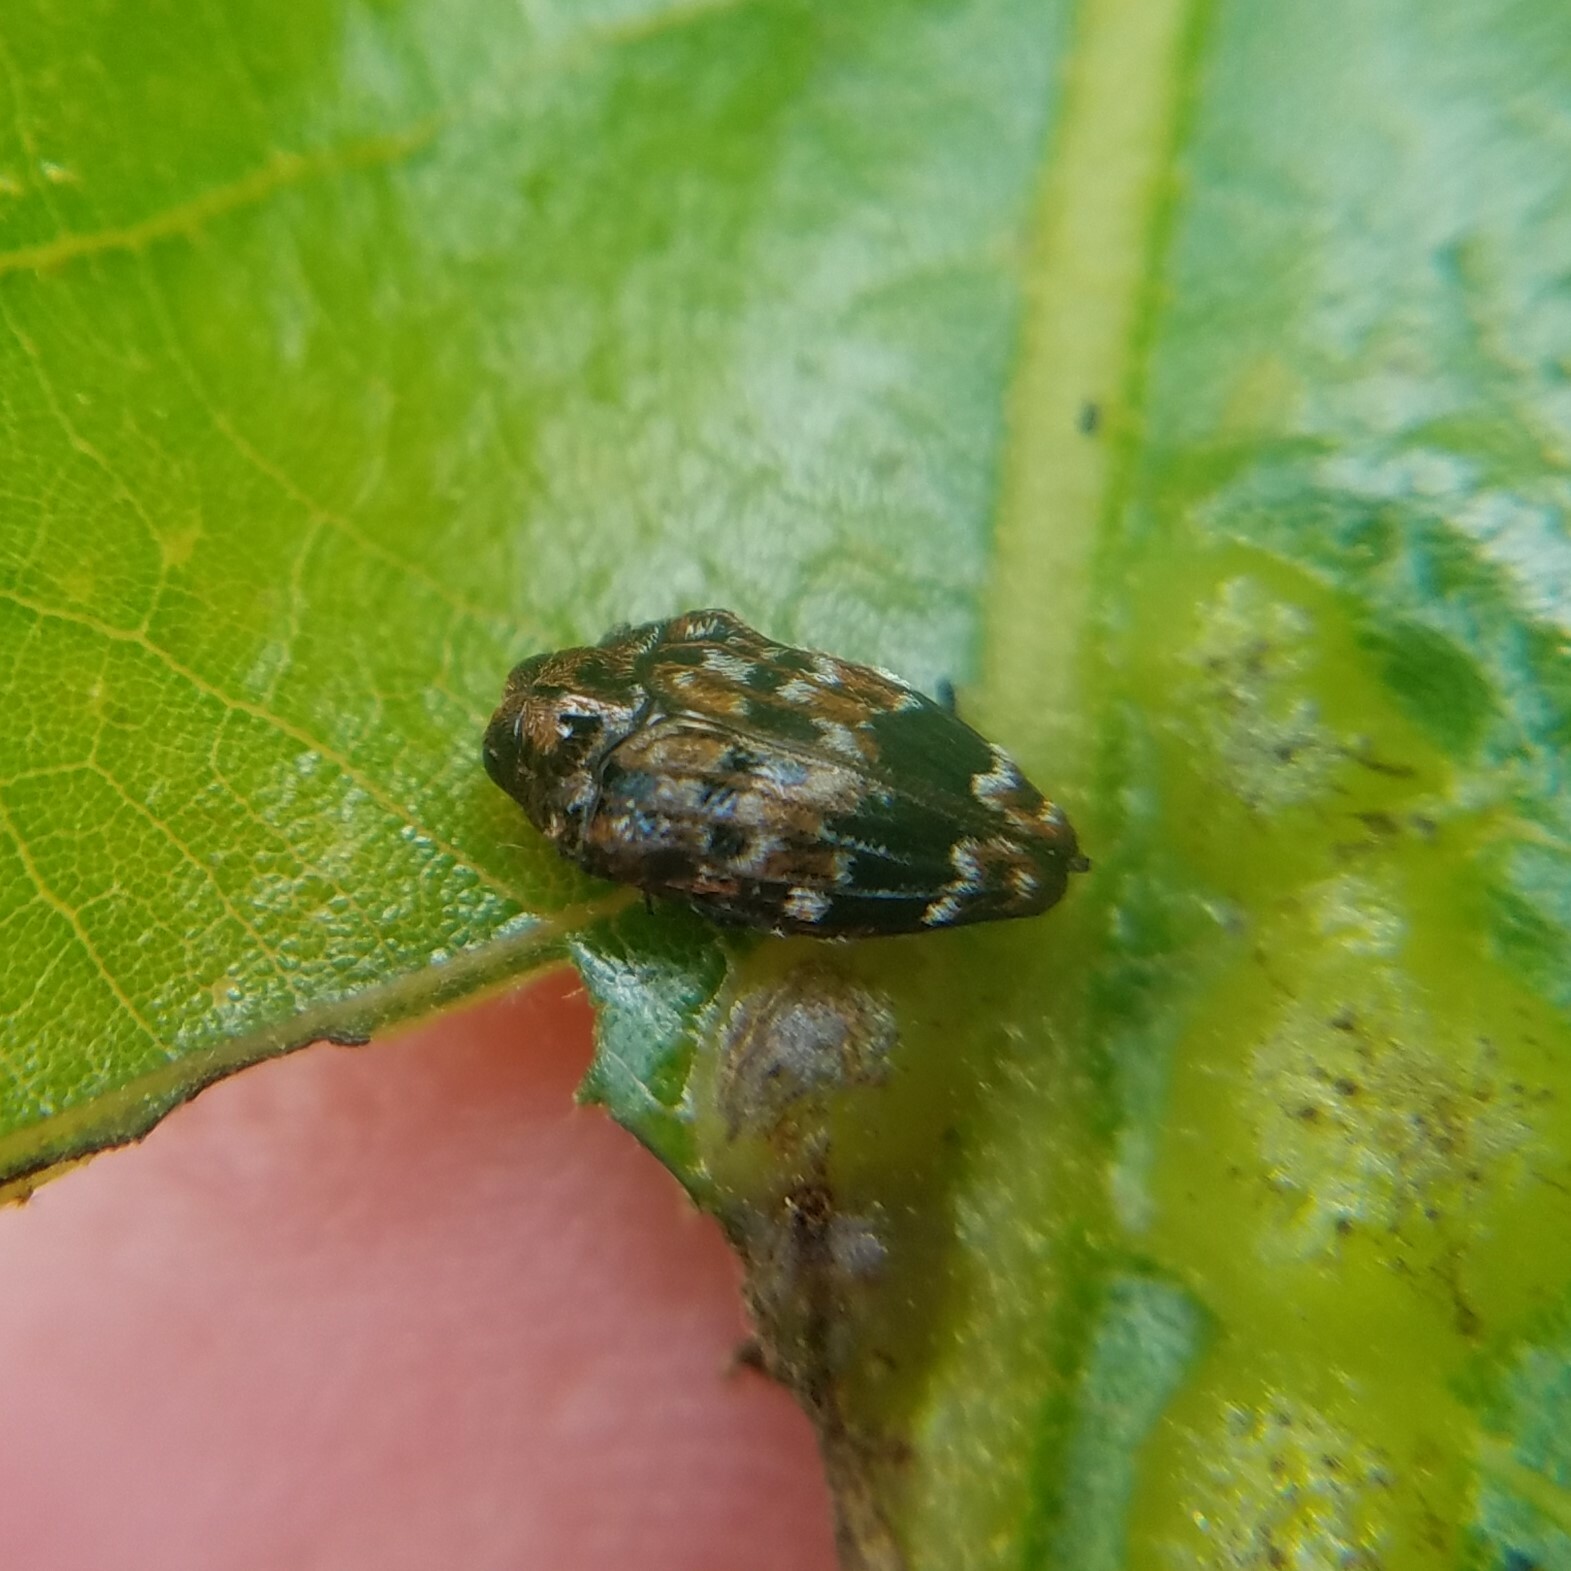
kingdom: Animalia
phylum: Arthropoda
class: Insecta
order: Coleoptera
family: Buprestidae
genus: Brachys
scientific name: Brachys ovatus
